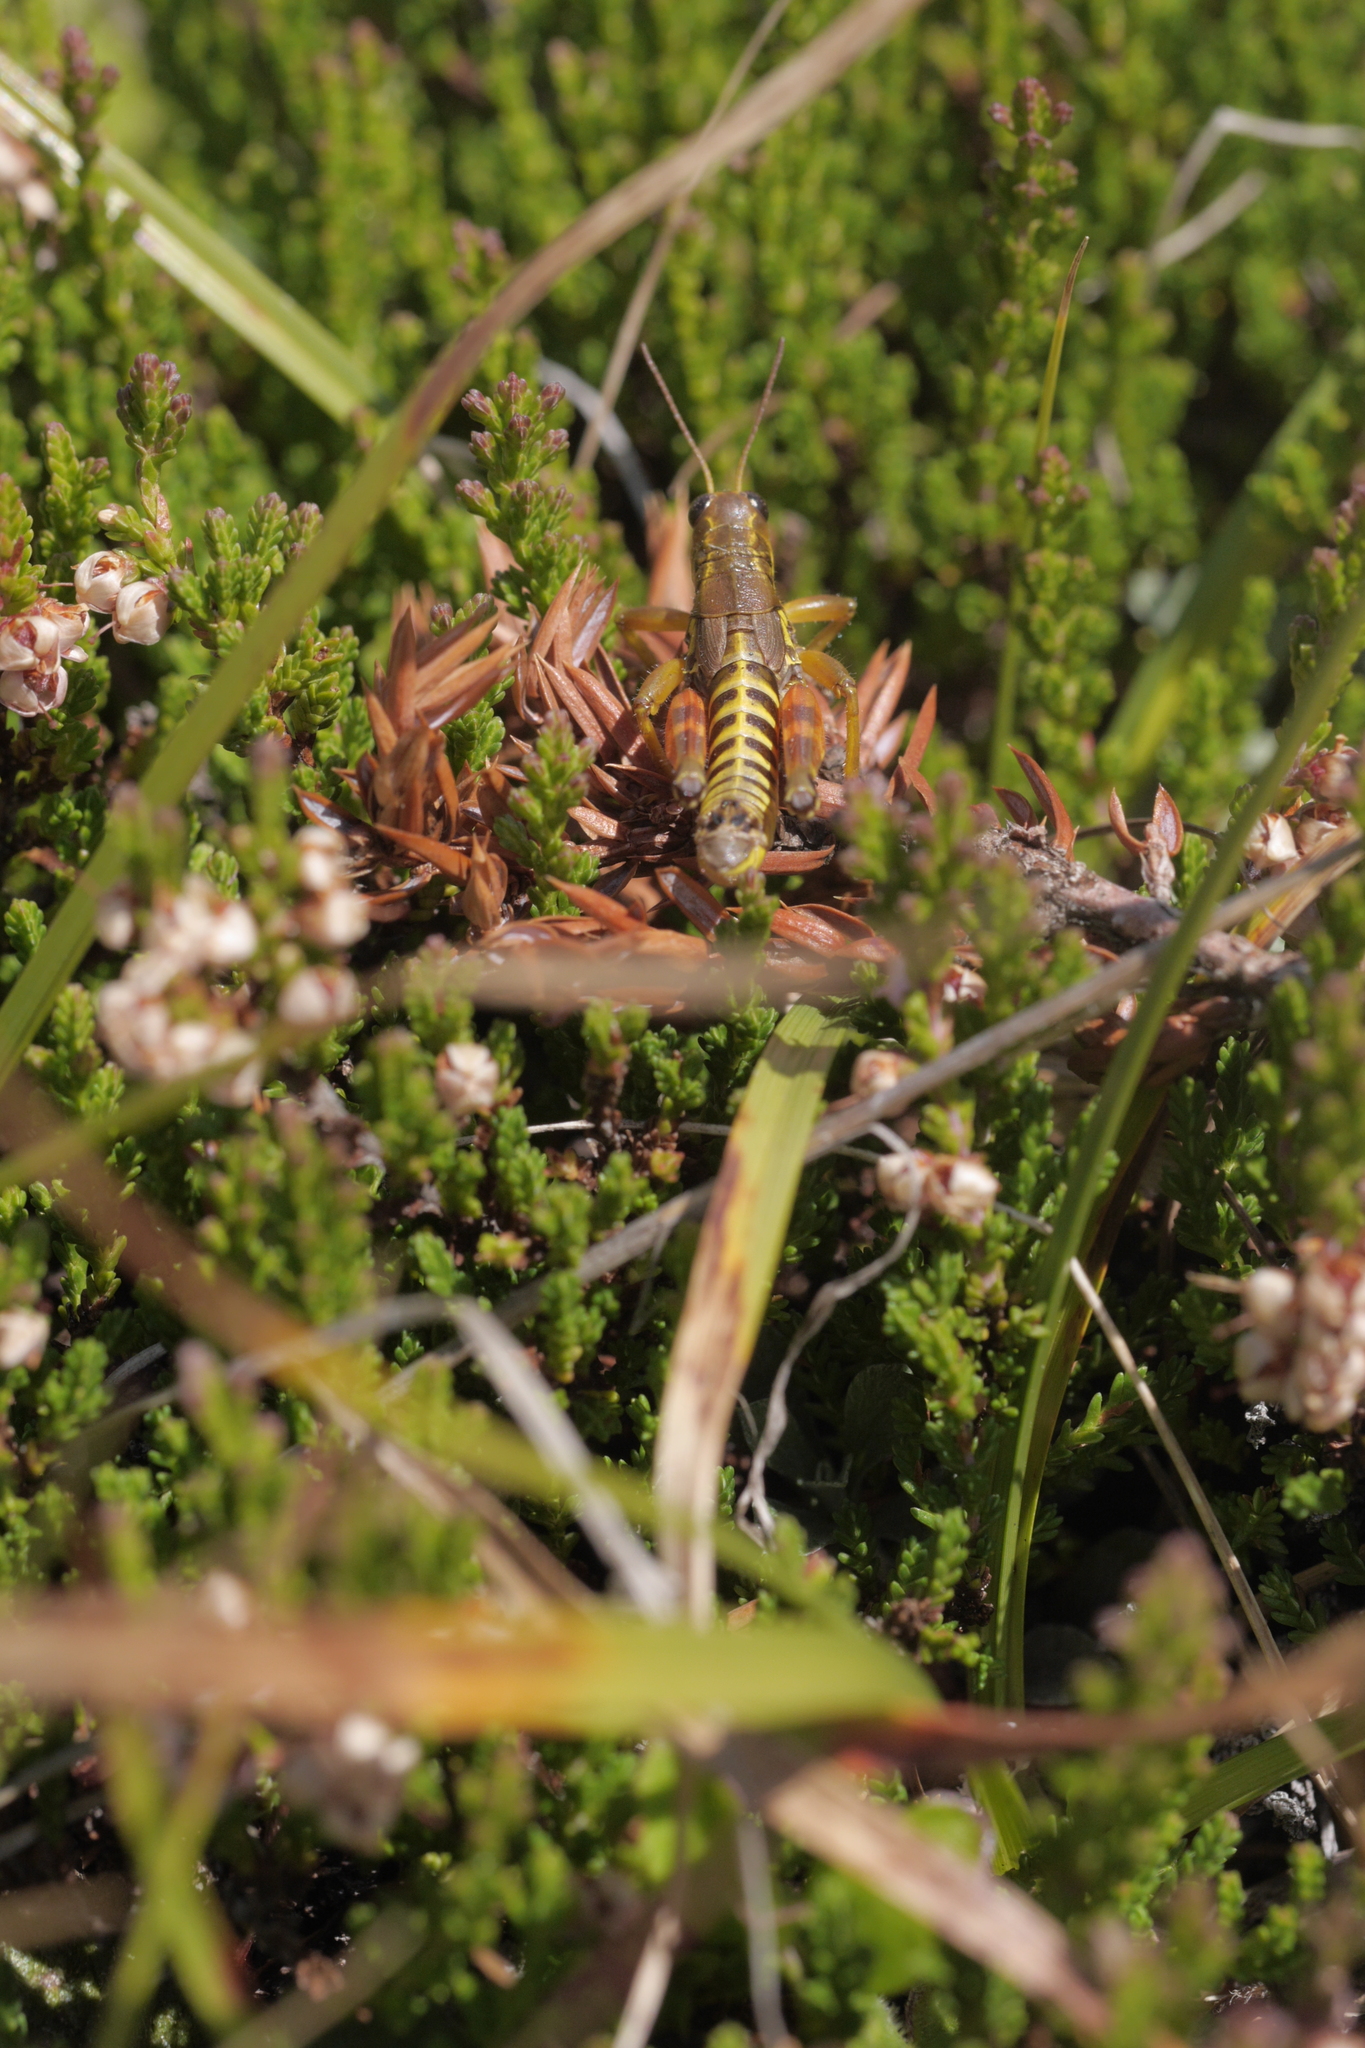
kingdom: Animalia
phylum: Arthropoda
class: Insecta
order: Orthoptera
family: Acrididae
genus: Podisma
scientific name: Podisma pedestris
